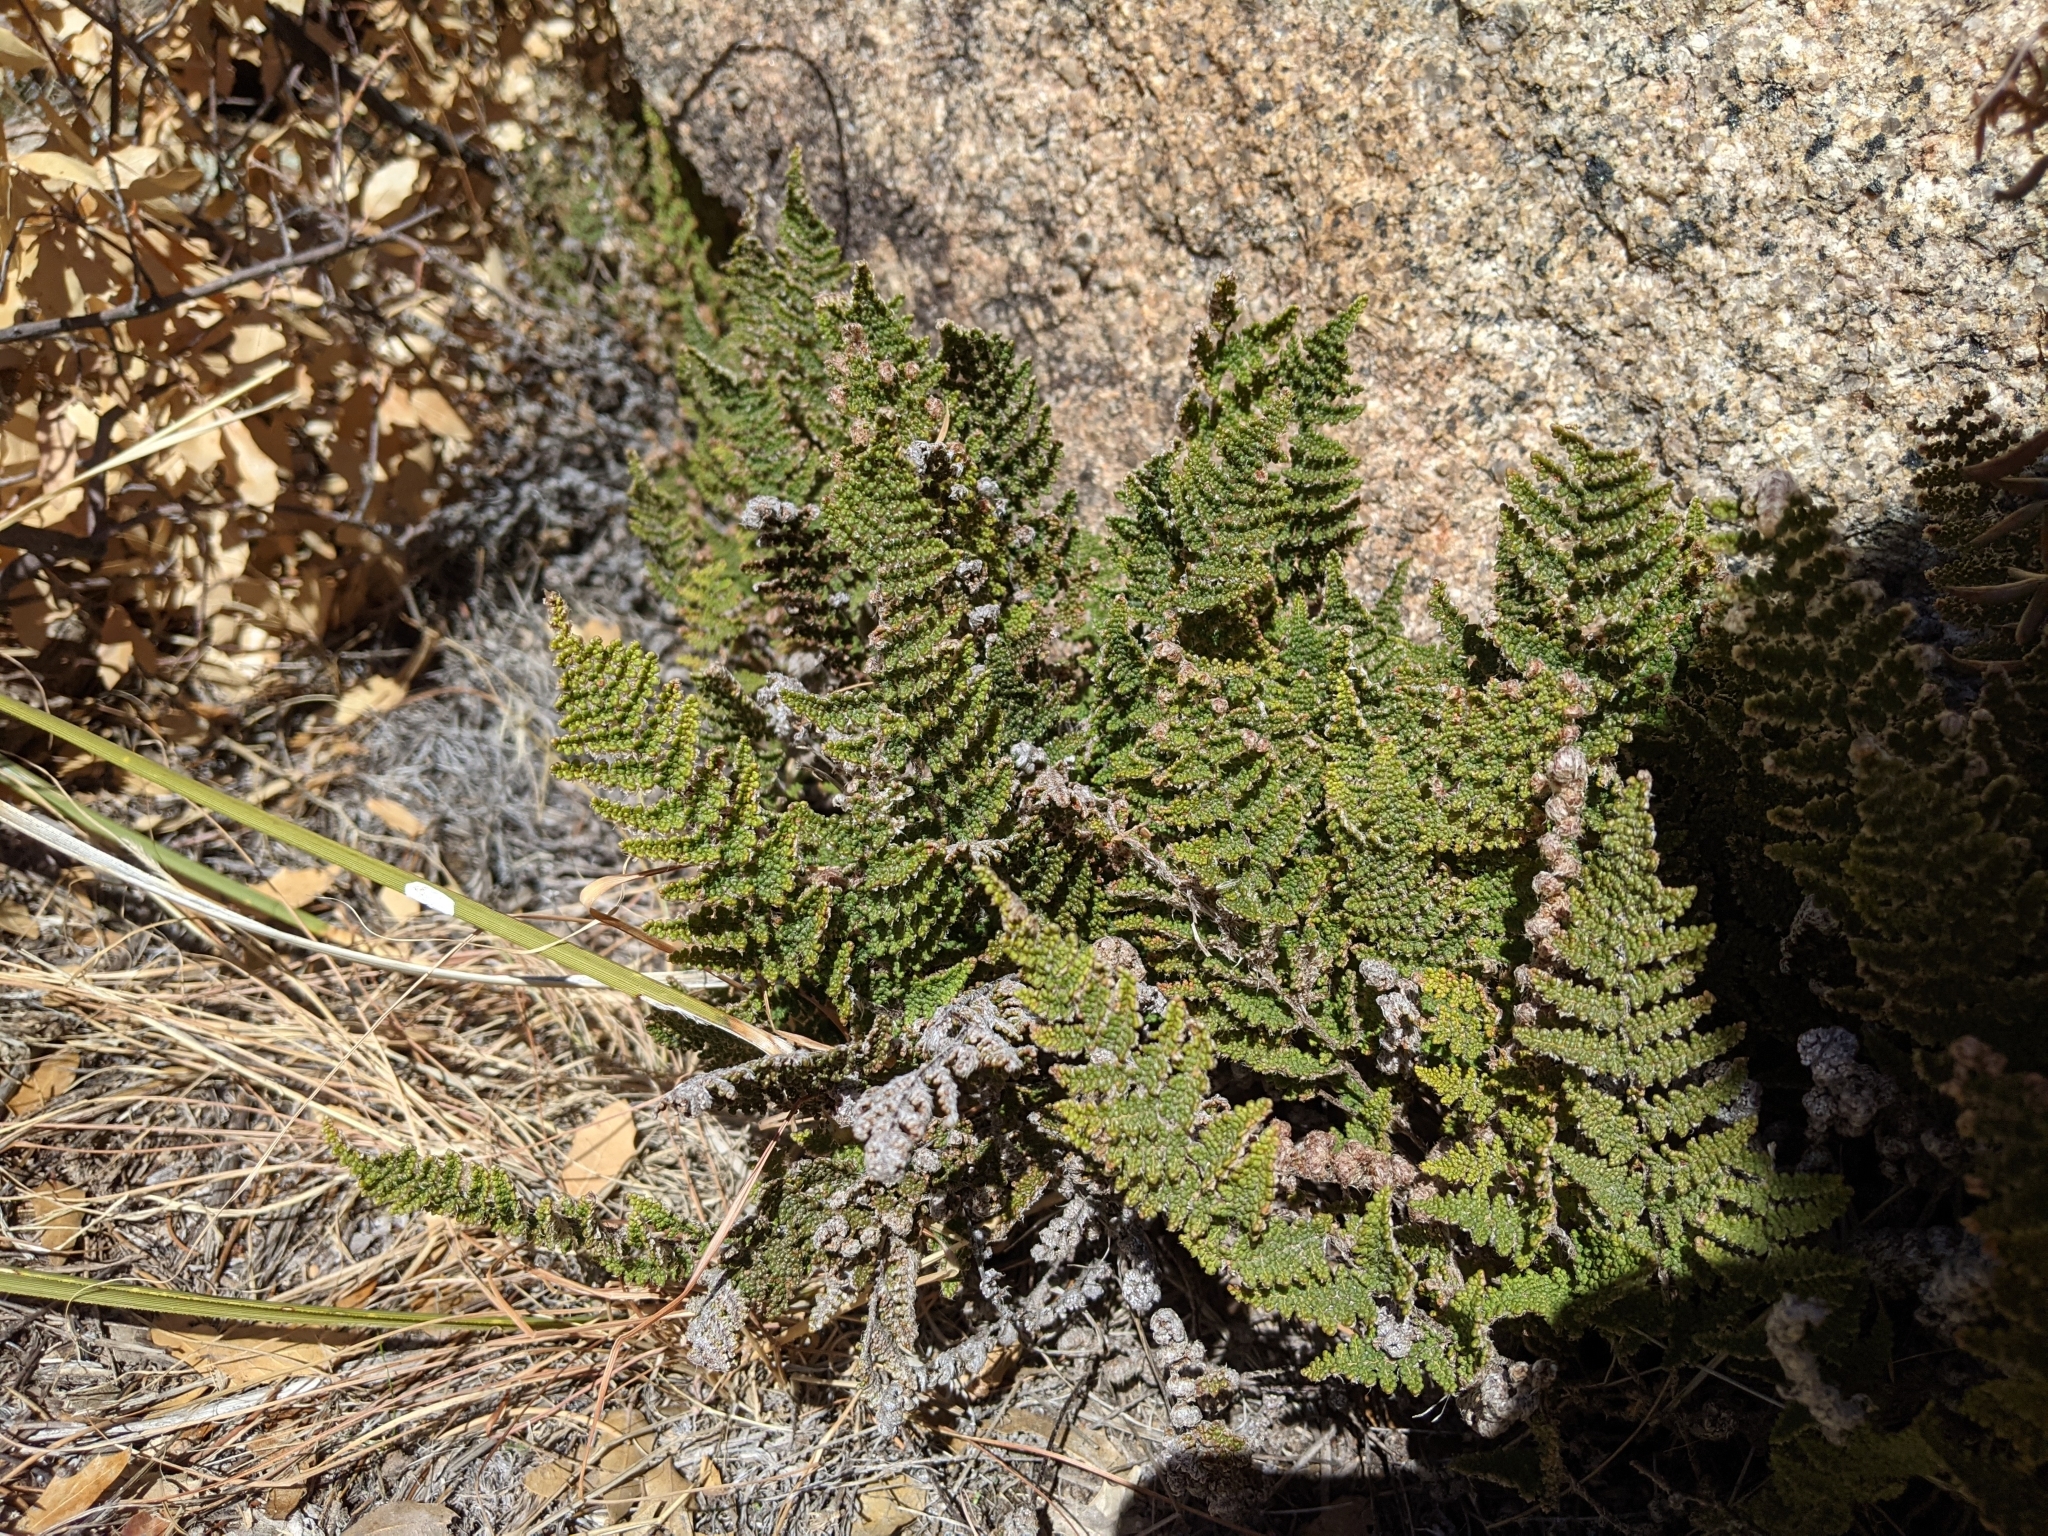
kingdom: Plantae
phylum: Tracheophyta
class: Polypodiopsida
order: Polypodiales
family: Pteridaceae
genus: Myriopteris
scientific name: Myriopteris covillei
